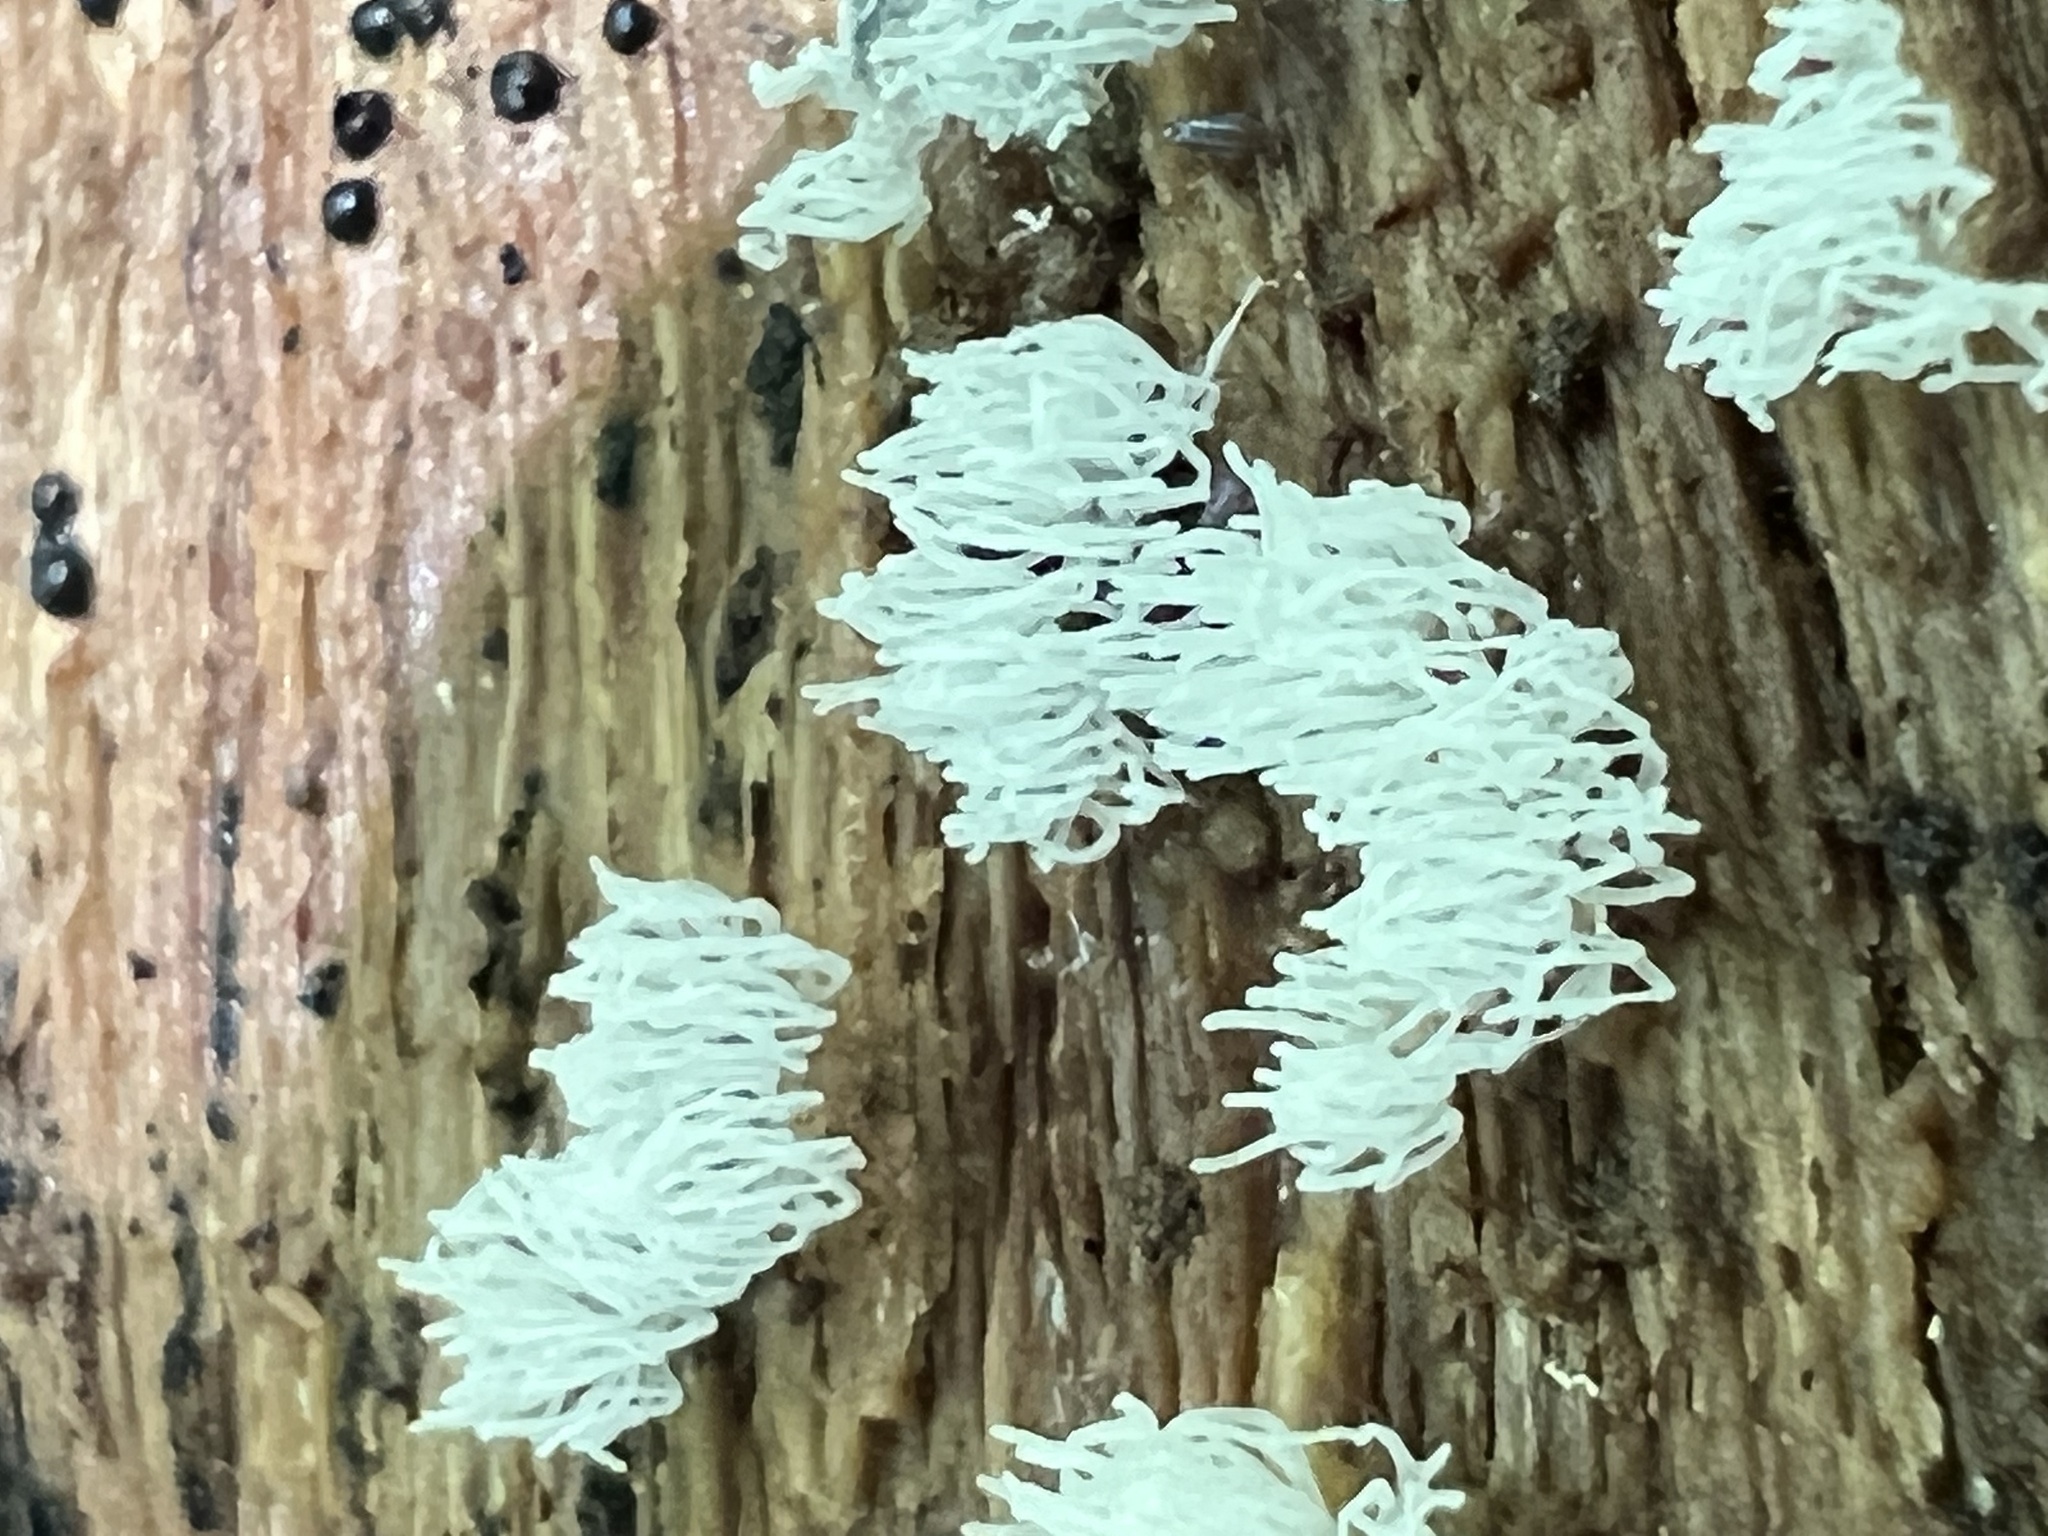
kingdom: Protozoa
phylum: Mycetozoa
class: Protosteliomycetes
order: Ceratiomyxales
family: Ceratiomyxaceae
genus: Ceratiomyxa
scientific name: Ceratiomyxa fruticulosa
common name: Honeycomb coral slime mold
